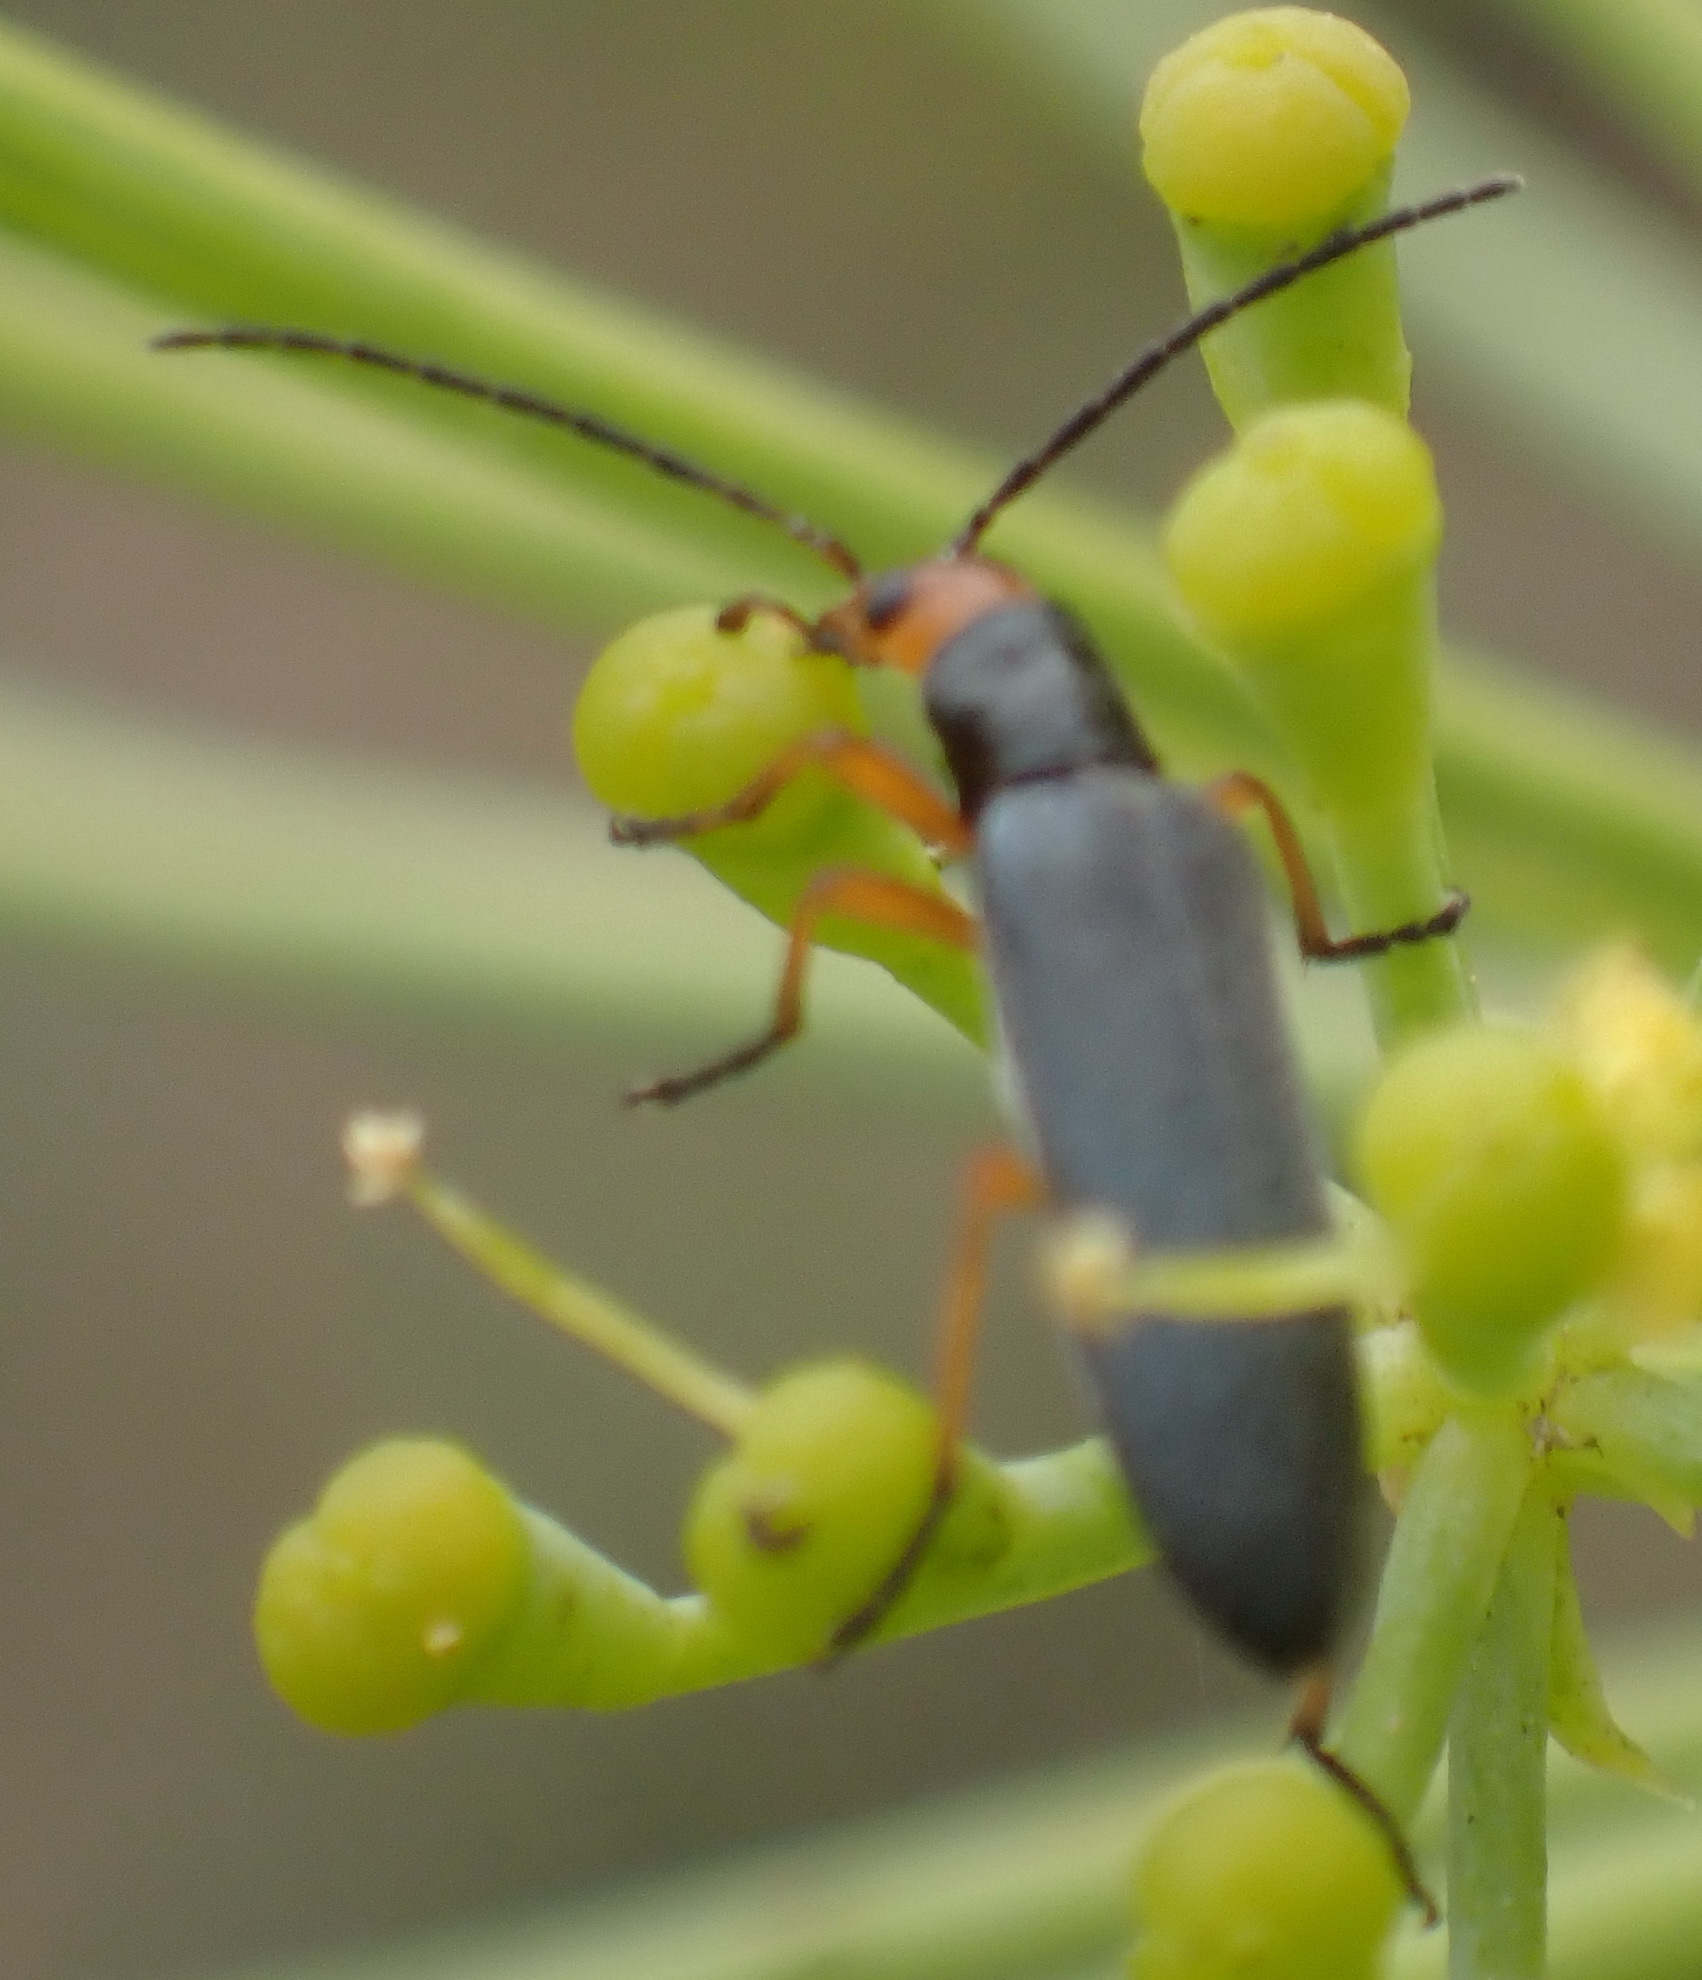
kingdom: Animalia
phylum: Arthropoda
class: Insecta
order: Coleoptera
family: Oedemeridae
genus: Melananthia
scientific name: Melananthia
